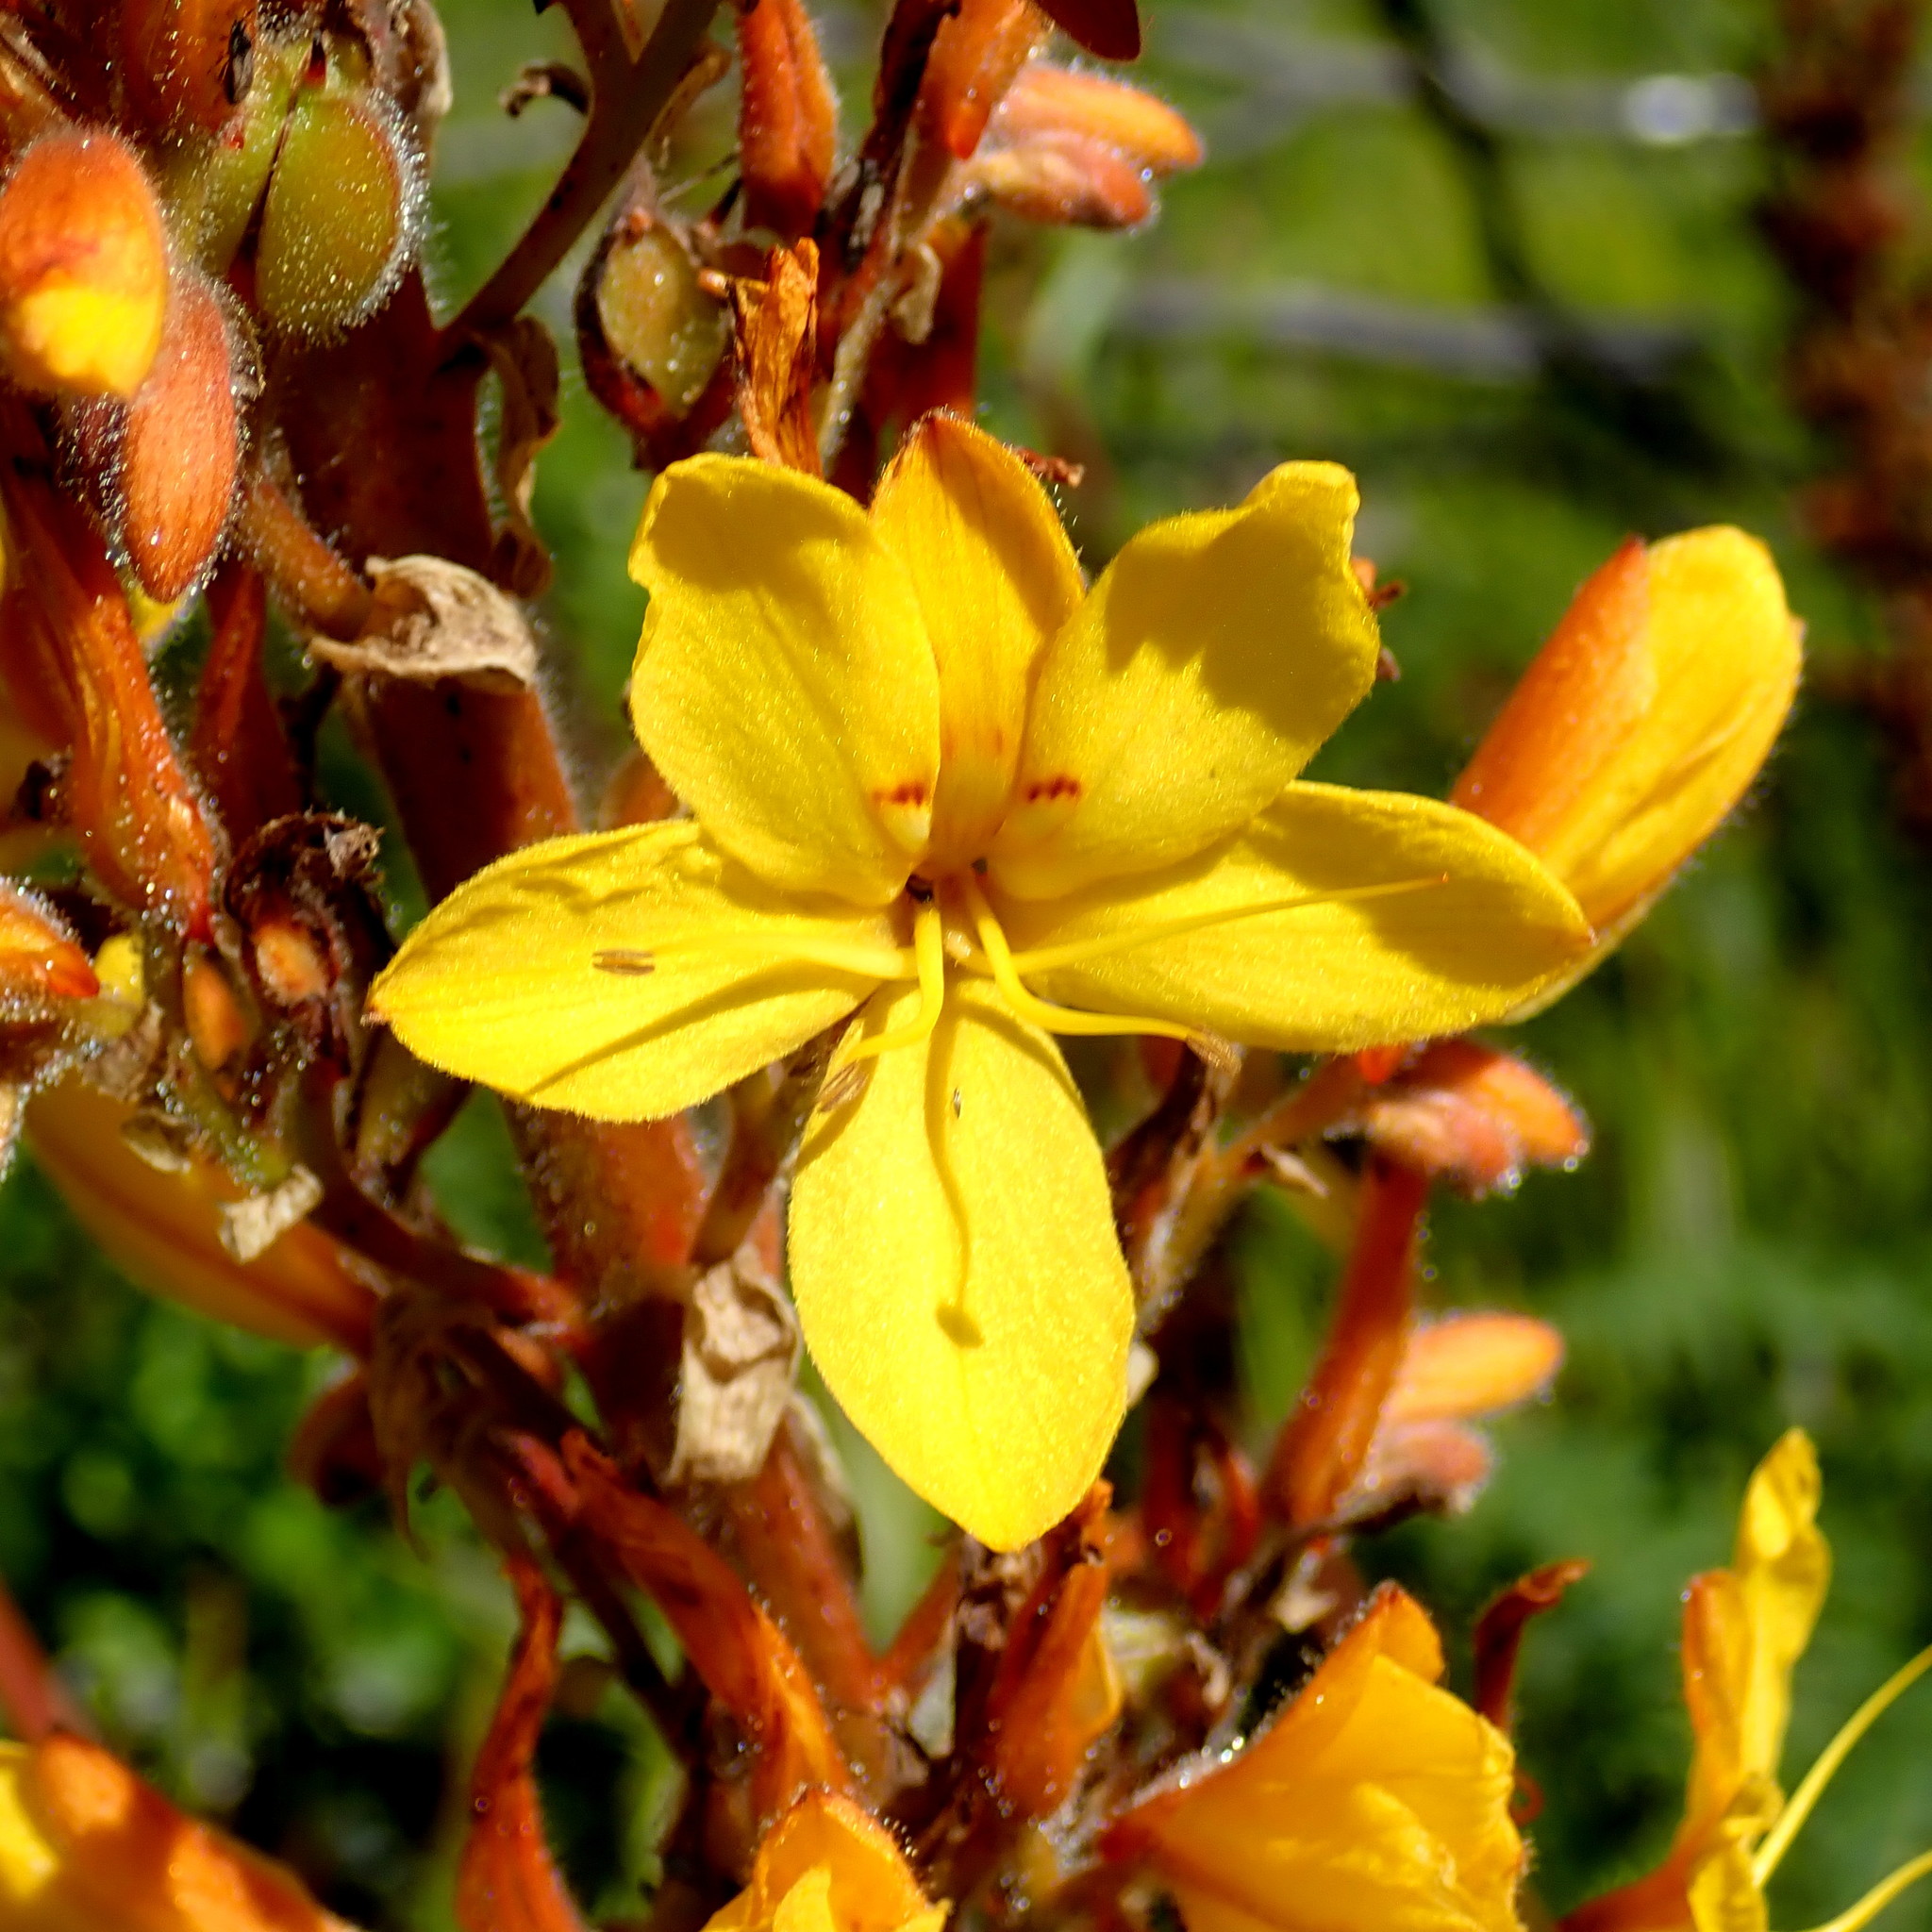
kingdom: Plantae
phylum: Tracheophyta
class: Liliopsida
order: Commelinales
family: Haemodoraceae
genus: Wachendorfia
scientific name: Wachendorfia thyrsiflora
